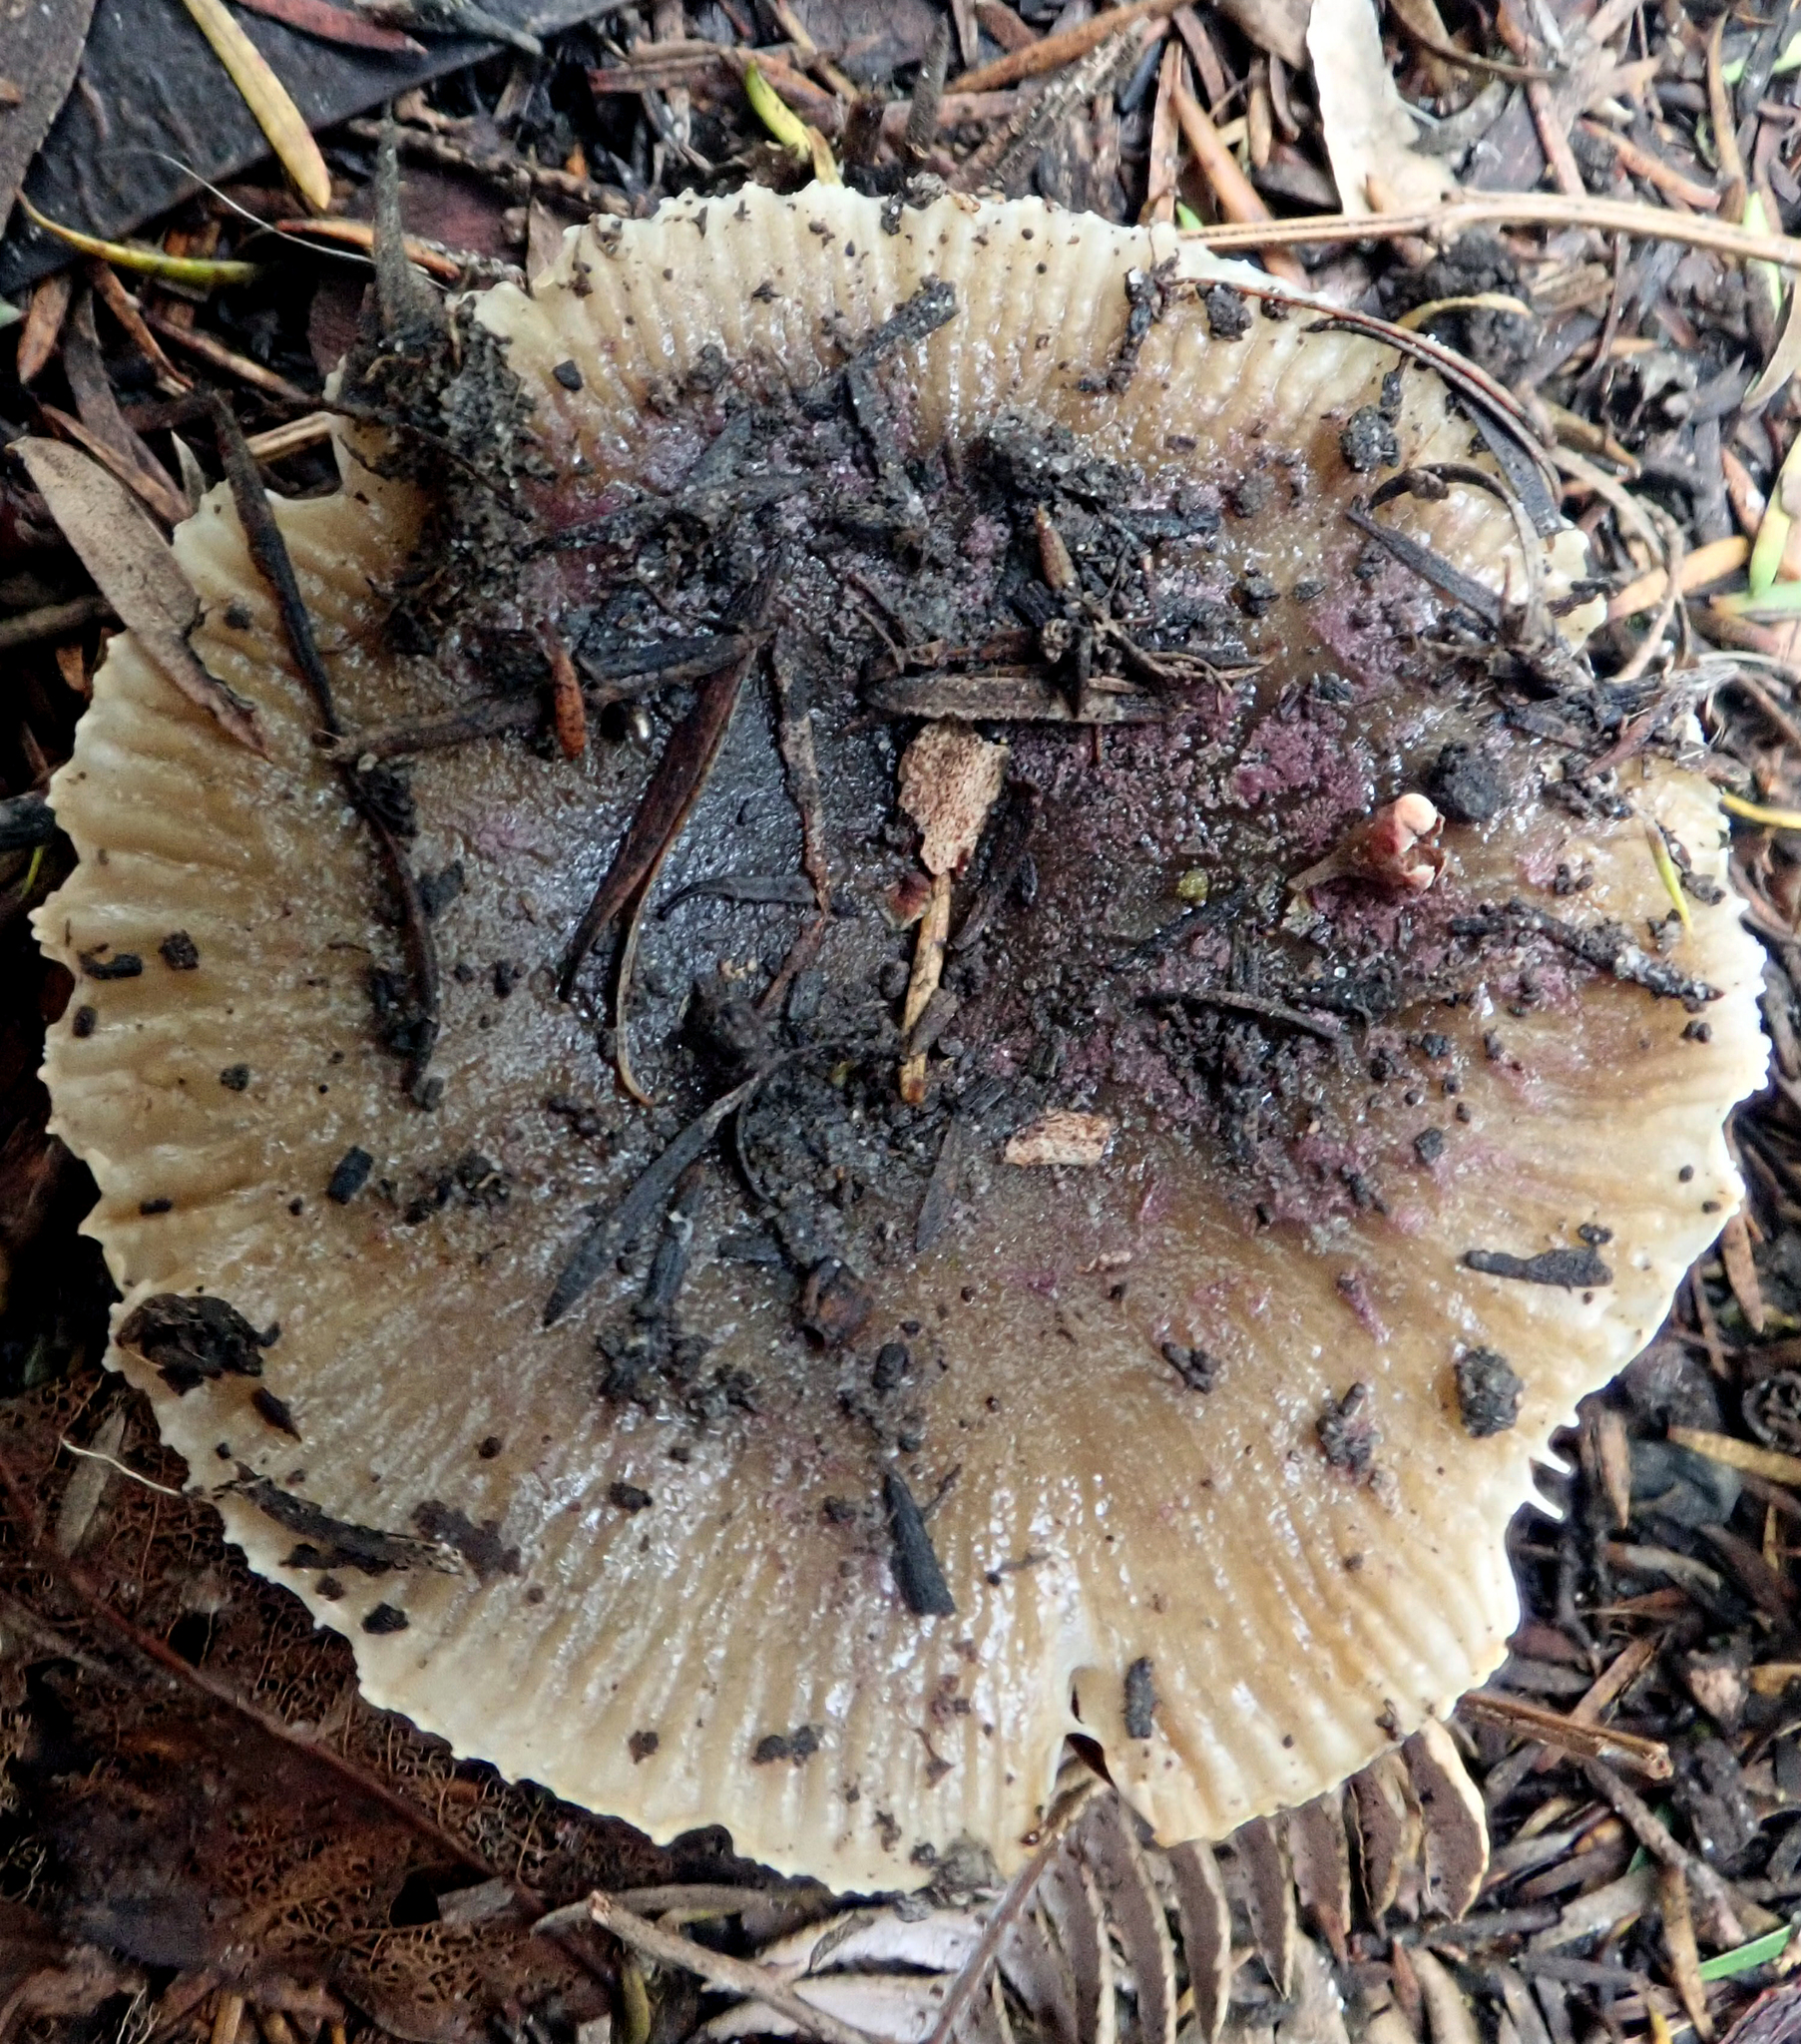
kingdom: Fungi
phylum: Basidiomycota
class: Agaricomycetes
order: Russulales
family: Russulaceae
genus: Russula
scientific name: Russula acrolamellata
